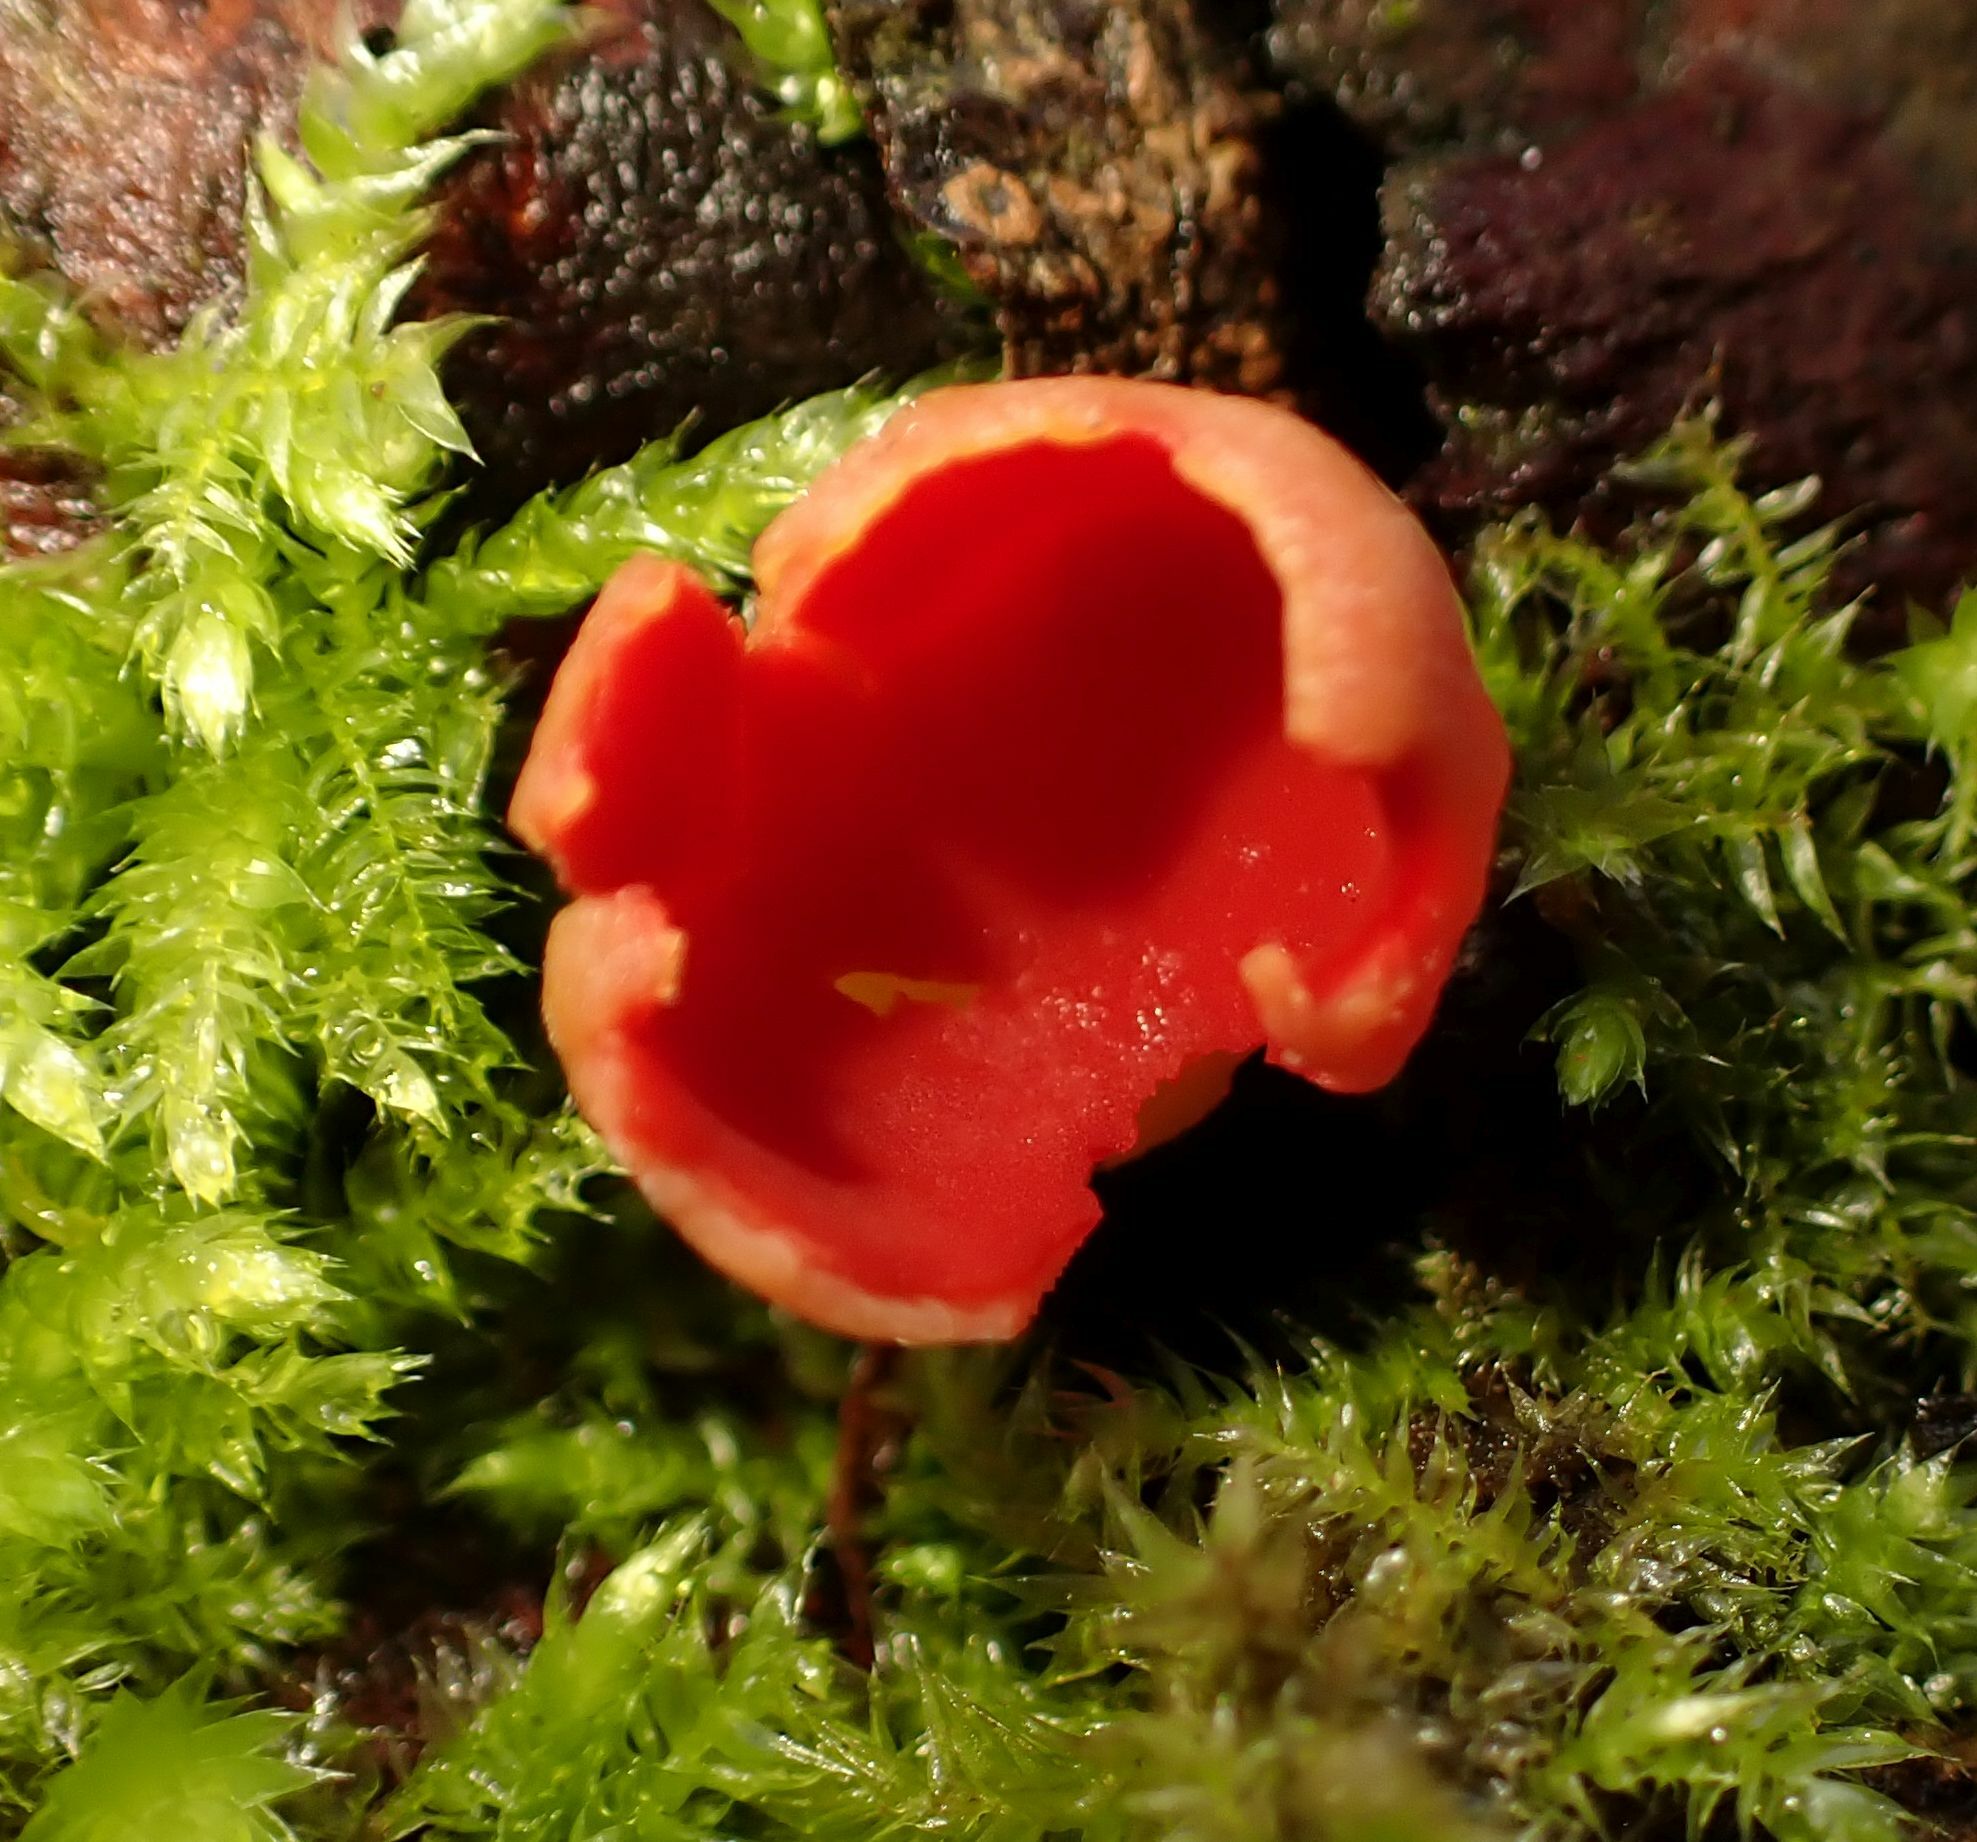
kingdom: Fungi
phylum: Ascomycota
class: Pezizomycetes
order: Pezizales
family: Sarcoscyphaceae
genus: Sarcoscypha
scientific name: Sarcoscypha
